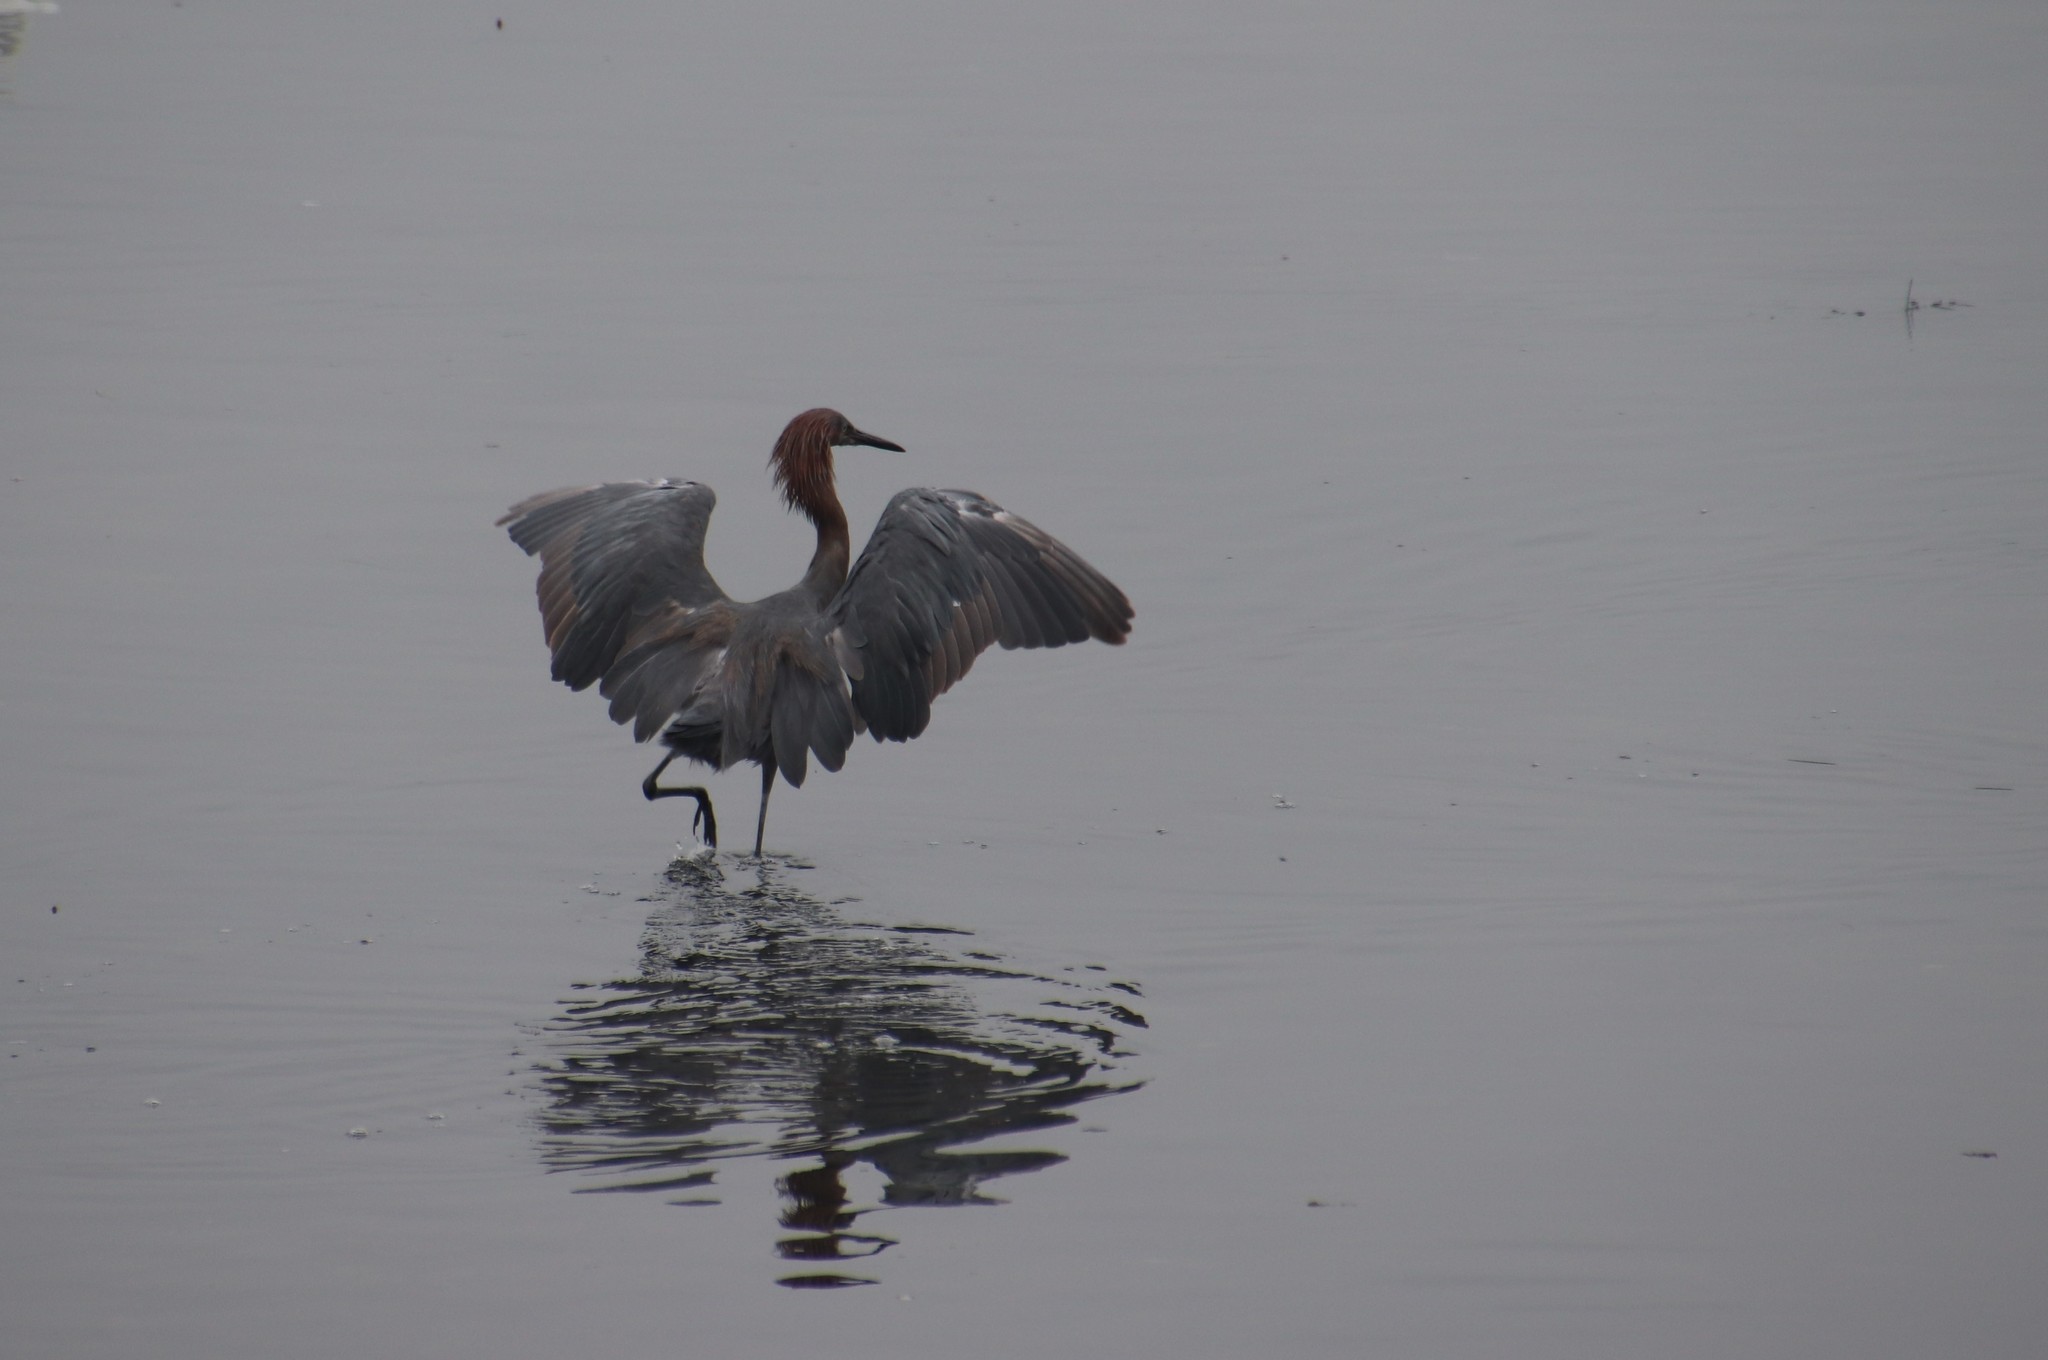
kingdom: Animalia
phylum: Chordata
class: Aves
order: Pelecaniformes
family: Ardeidae
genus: Egretta
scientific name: Egretta rufescens
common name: Reddish egret
